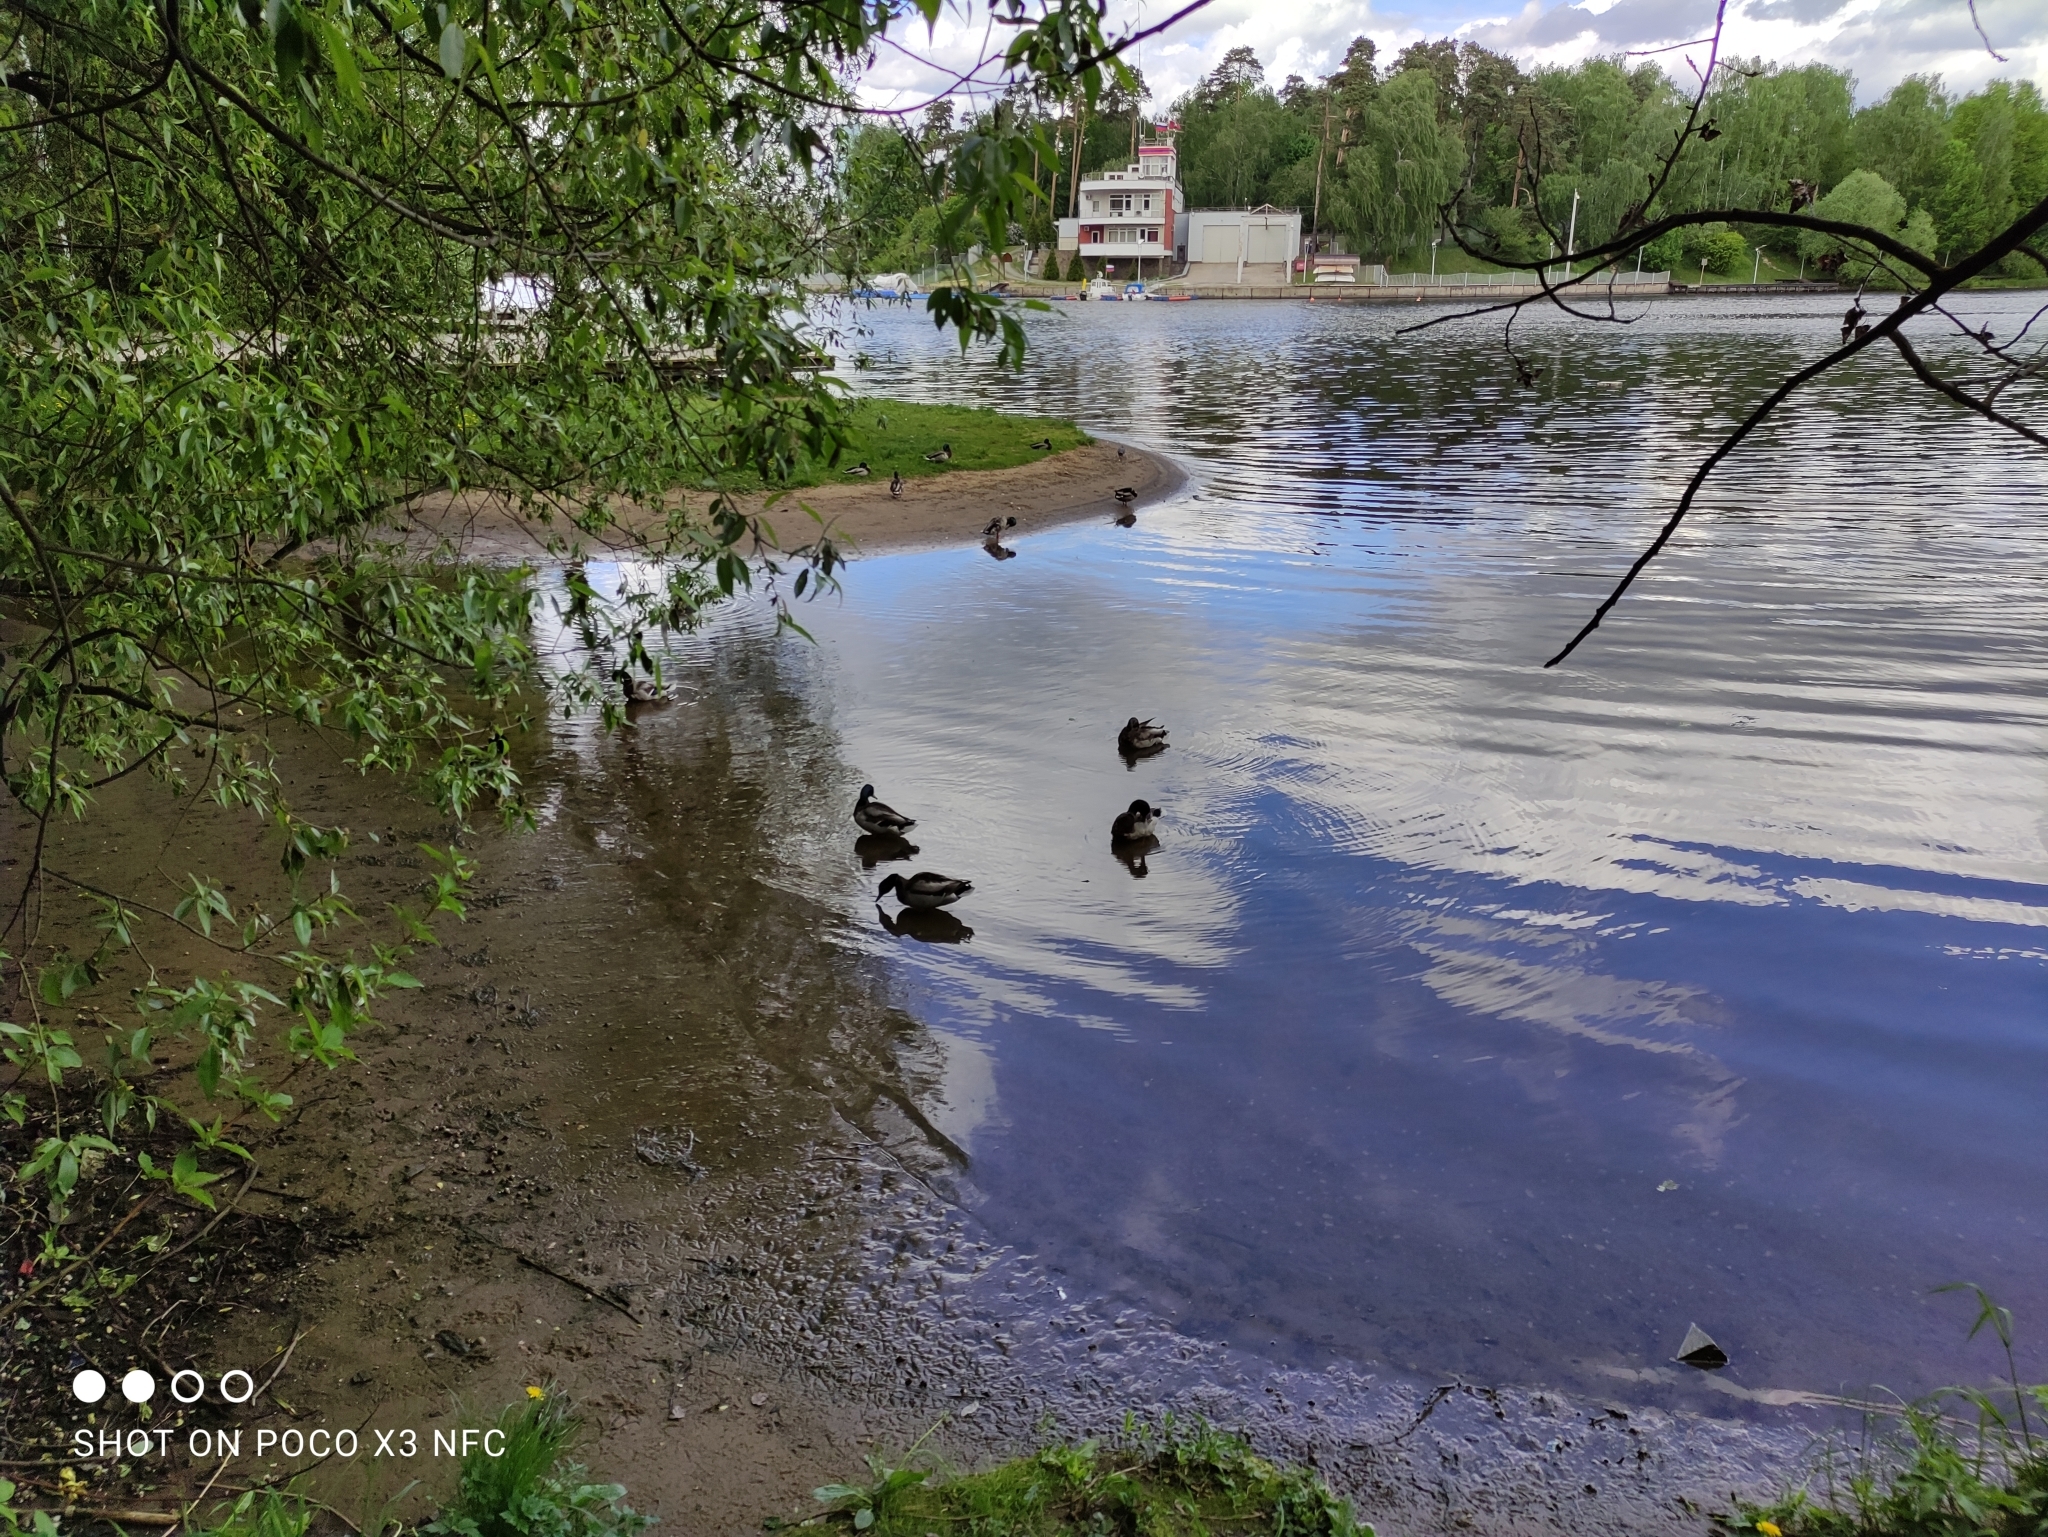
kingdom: Animalia
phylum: Chordata
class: Aves
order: Anseriformes
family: Anatidae
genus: Anas
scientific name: Anas platyrhynchos
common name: Mallard
